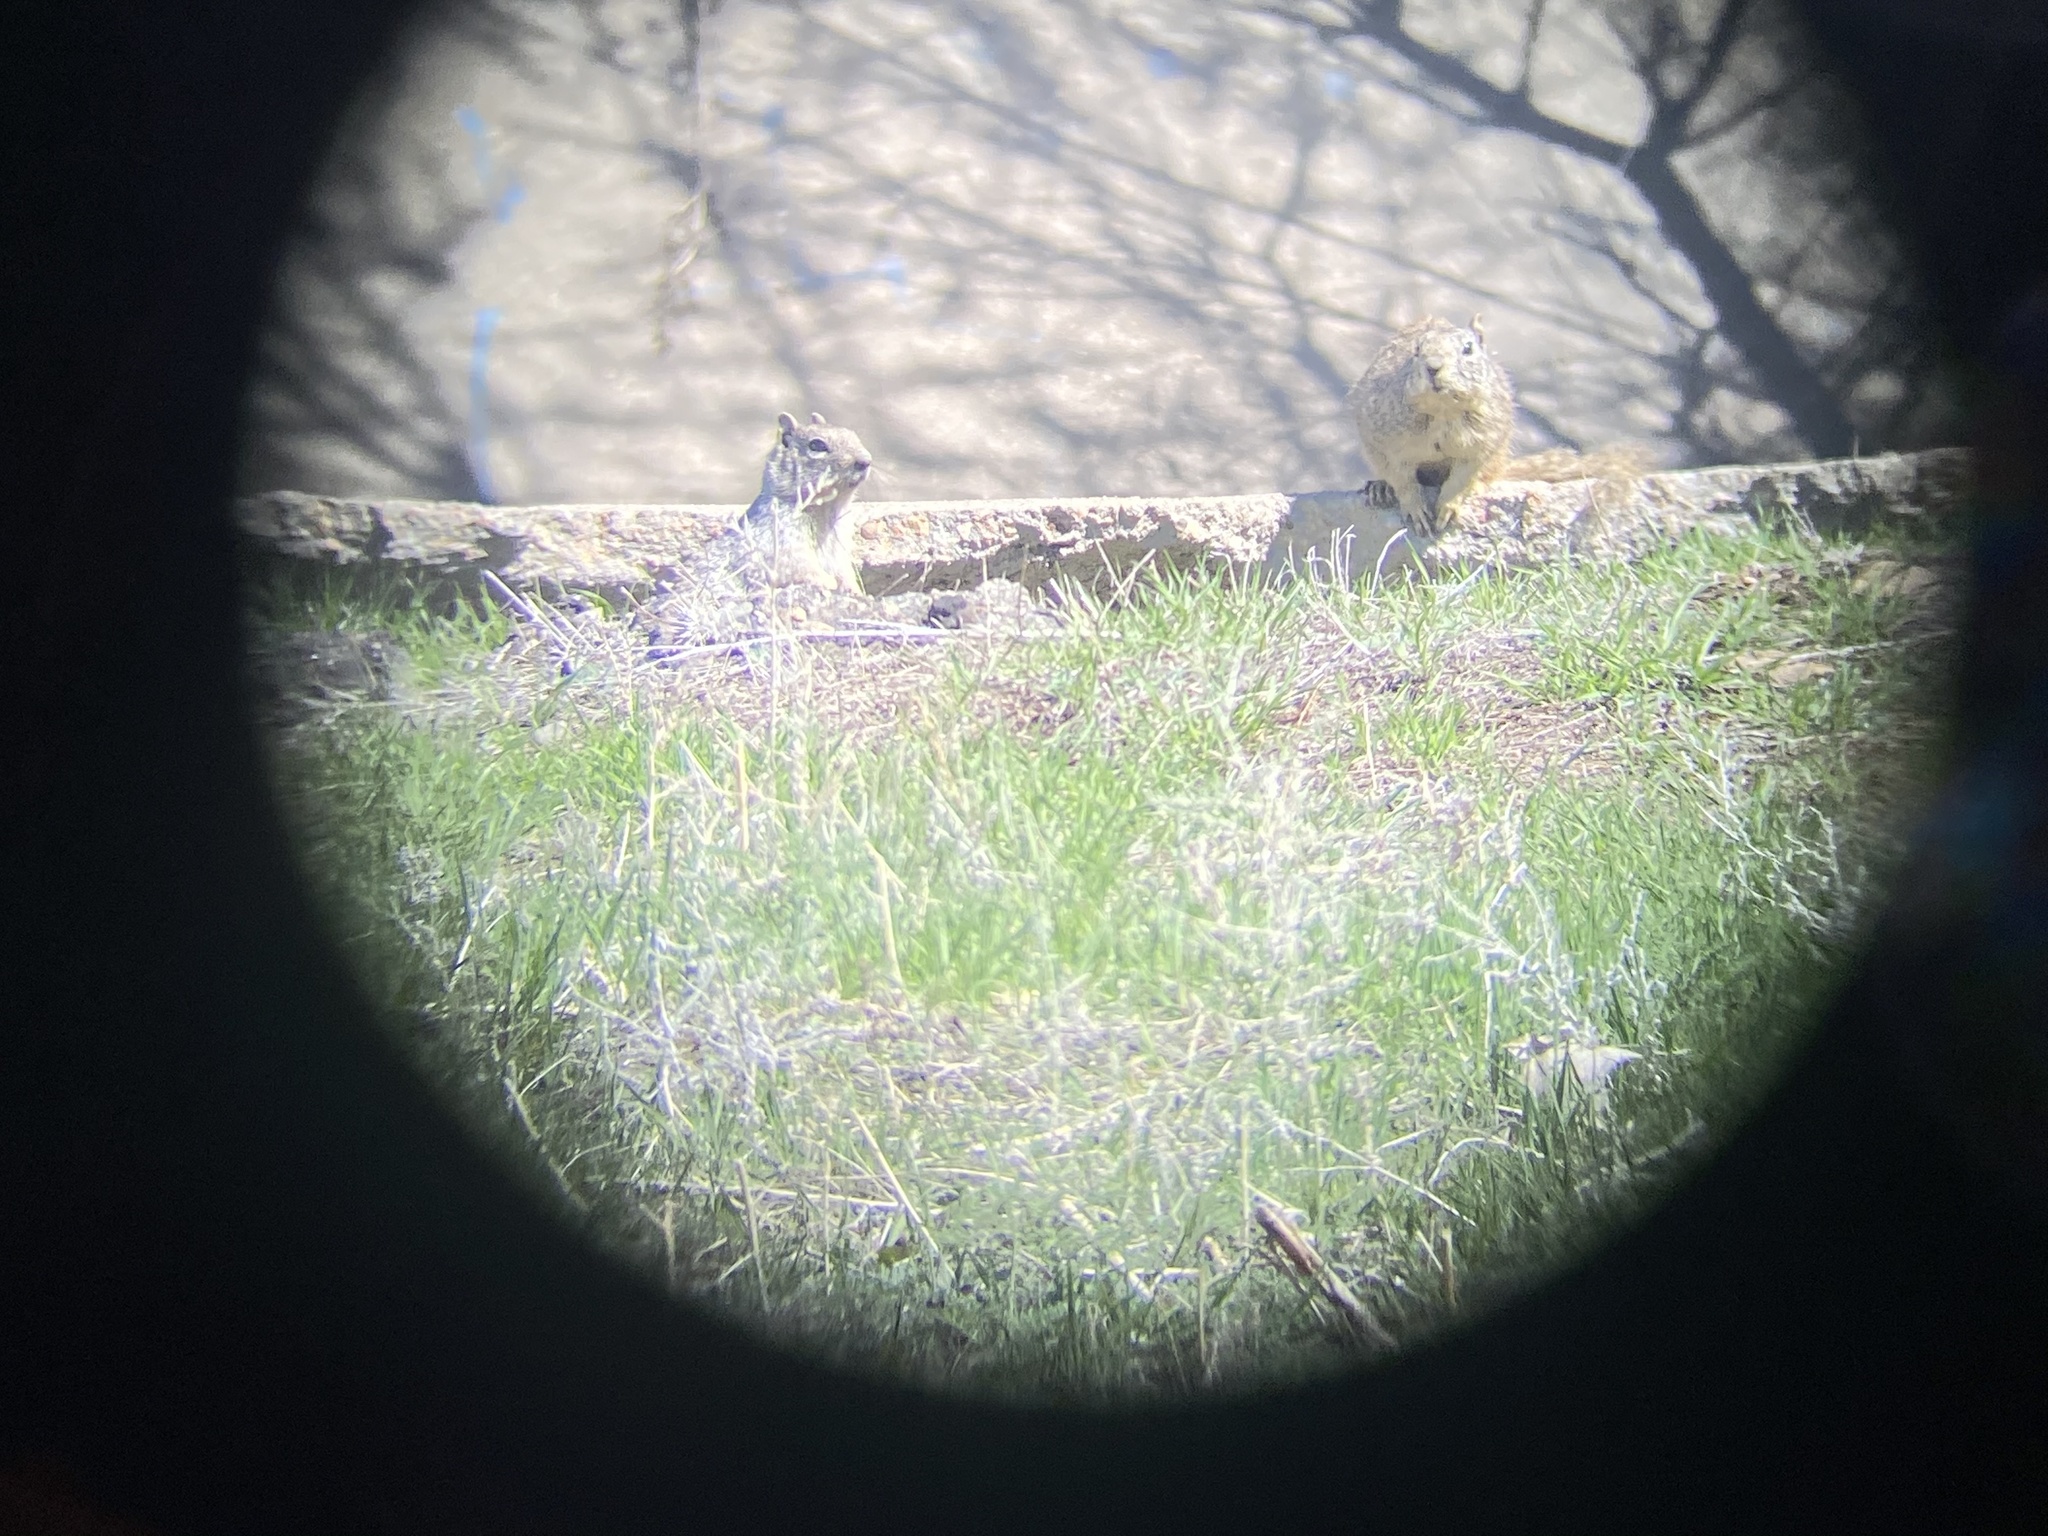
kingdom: Animalia
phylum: Chordata
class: Mammalia
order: Rodentia
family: Sciuridae
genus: Otospermophilus
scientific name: Otospermophilus variegatus
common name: Rock squirrel
